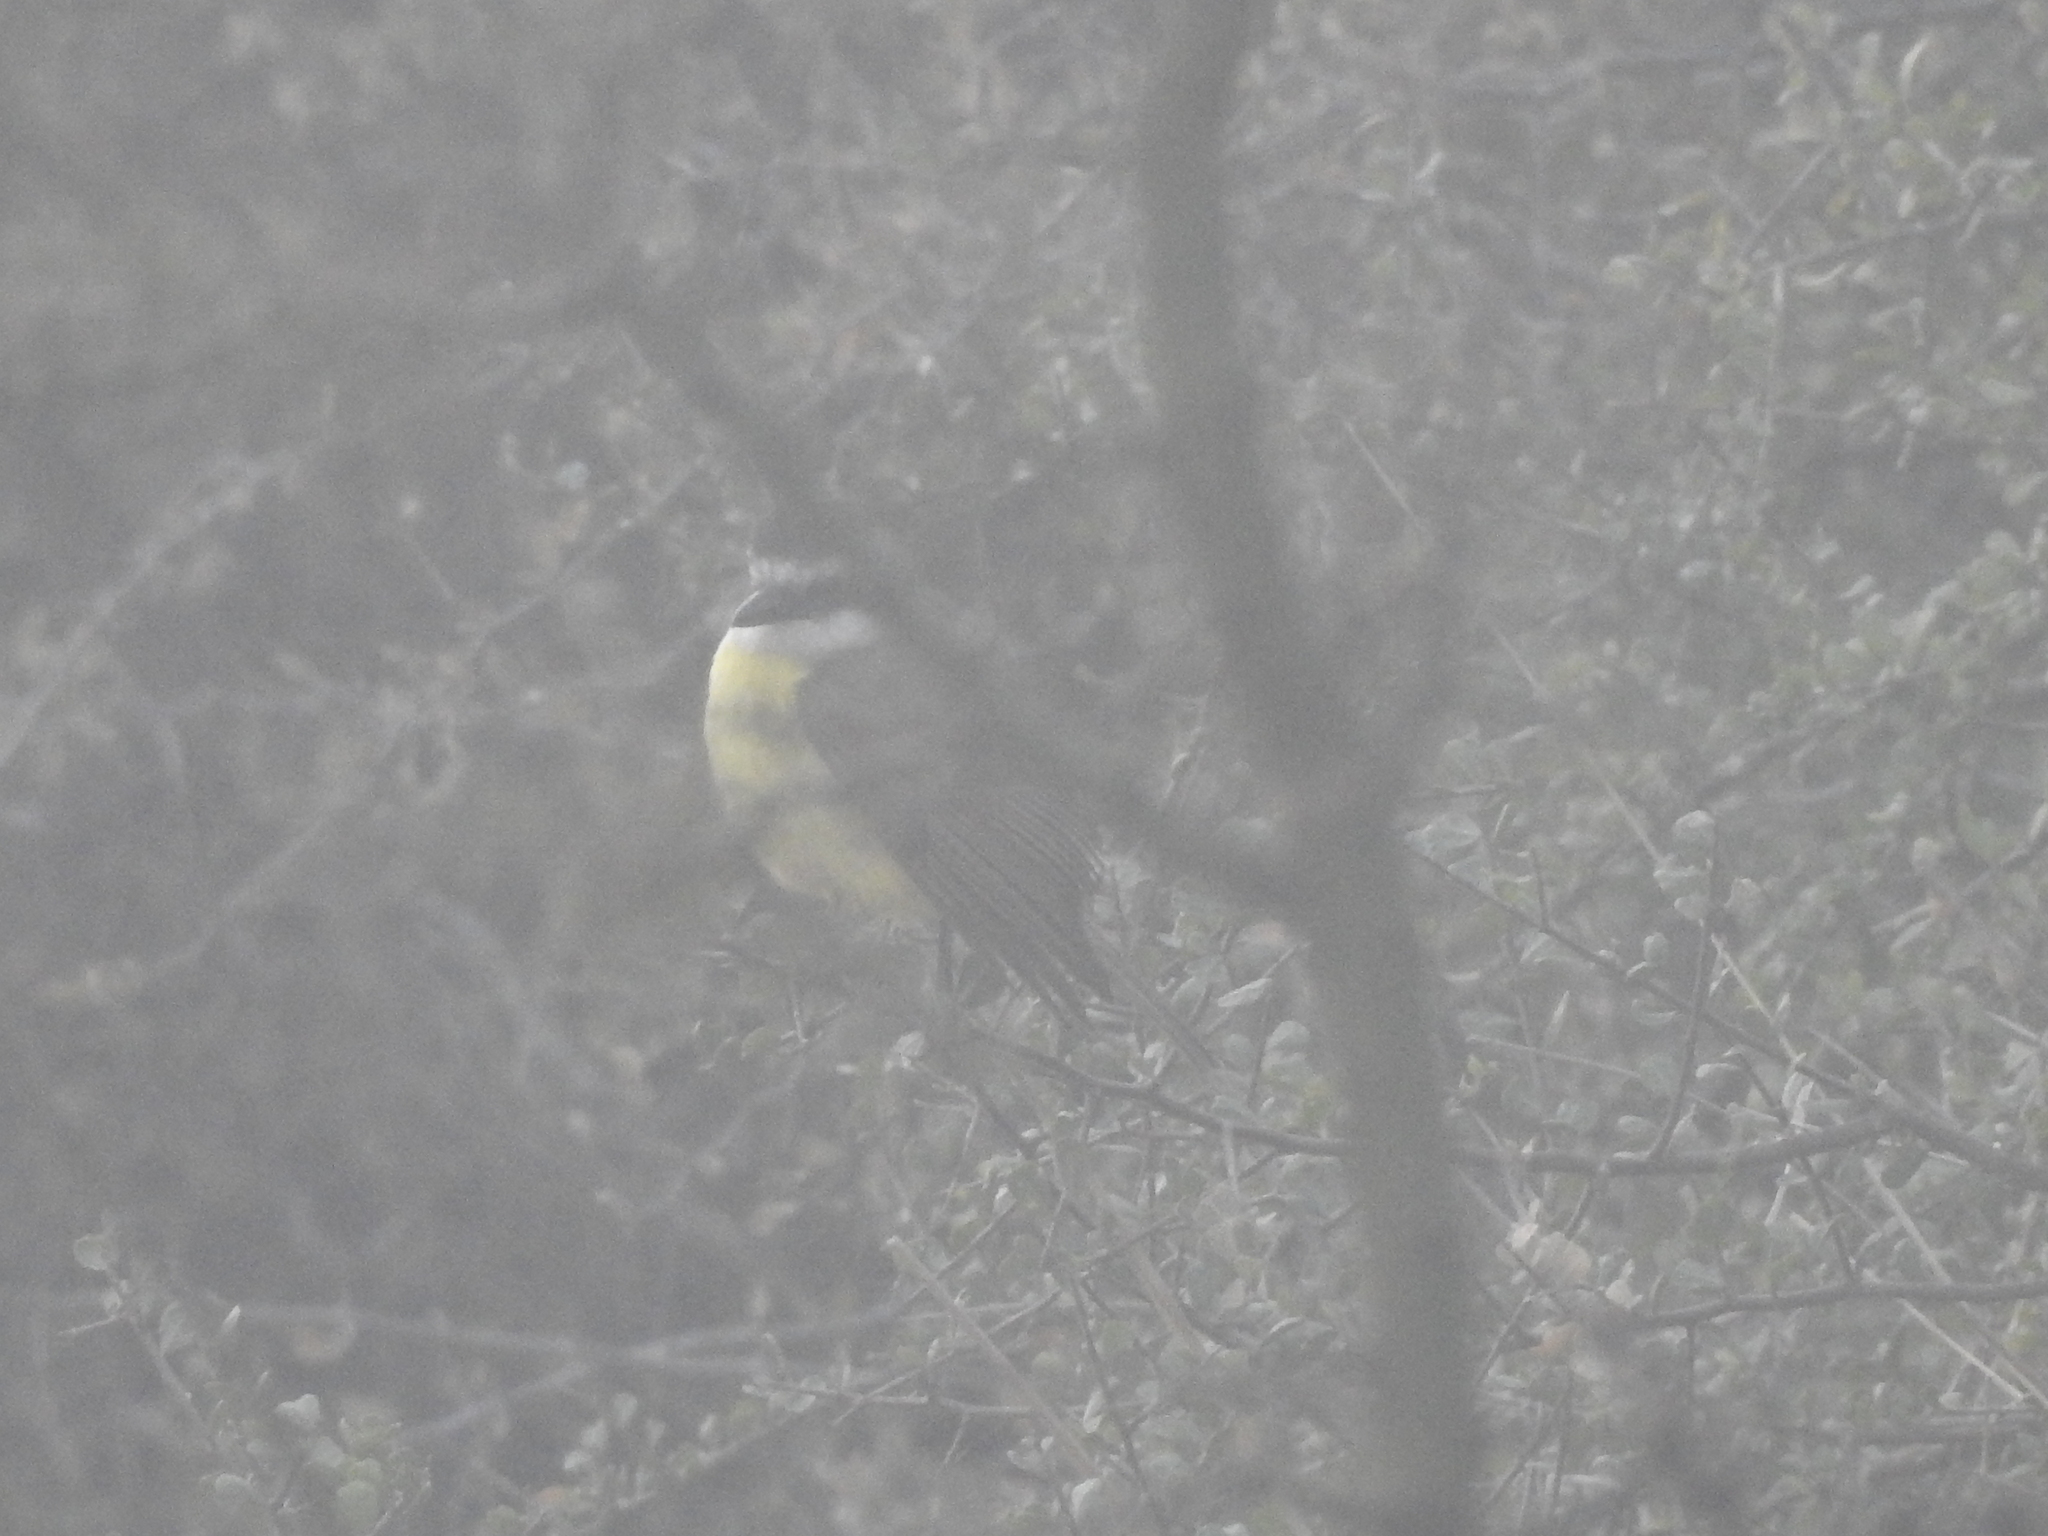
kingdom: Animalia
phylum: Chordata
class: Aves
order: Passeriformes
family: Tyrannidae
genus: Pitangus
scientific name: Pitangus sulphuratus
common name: Great kiskadee
